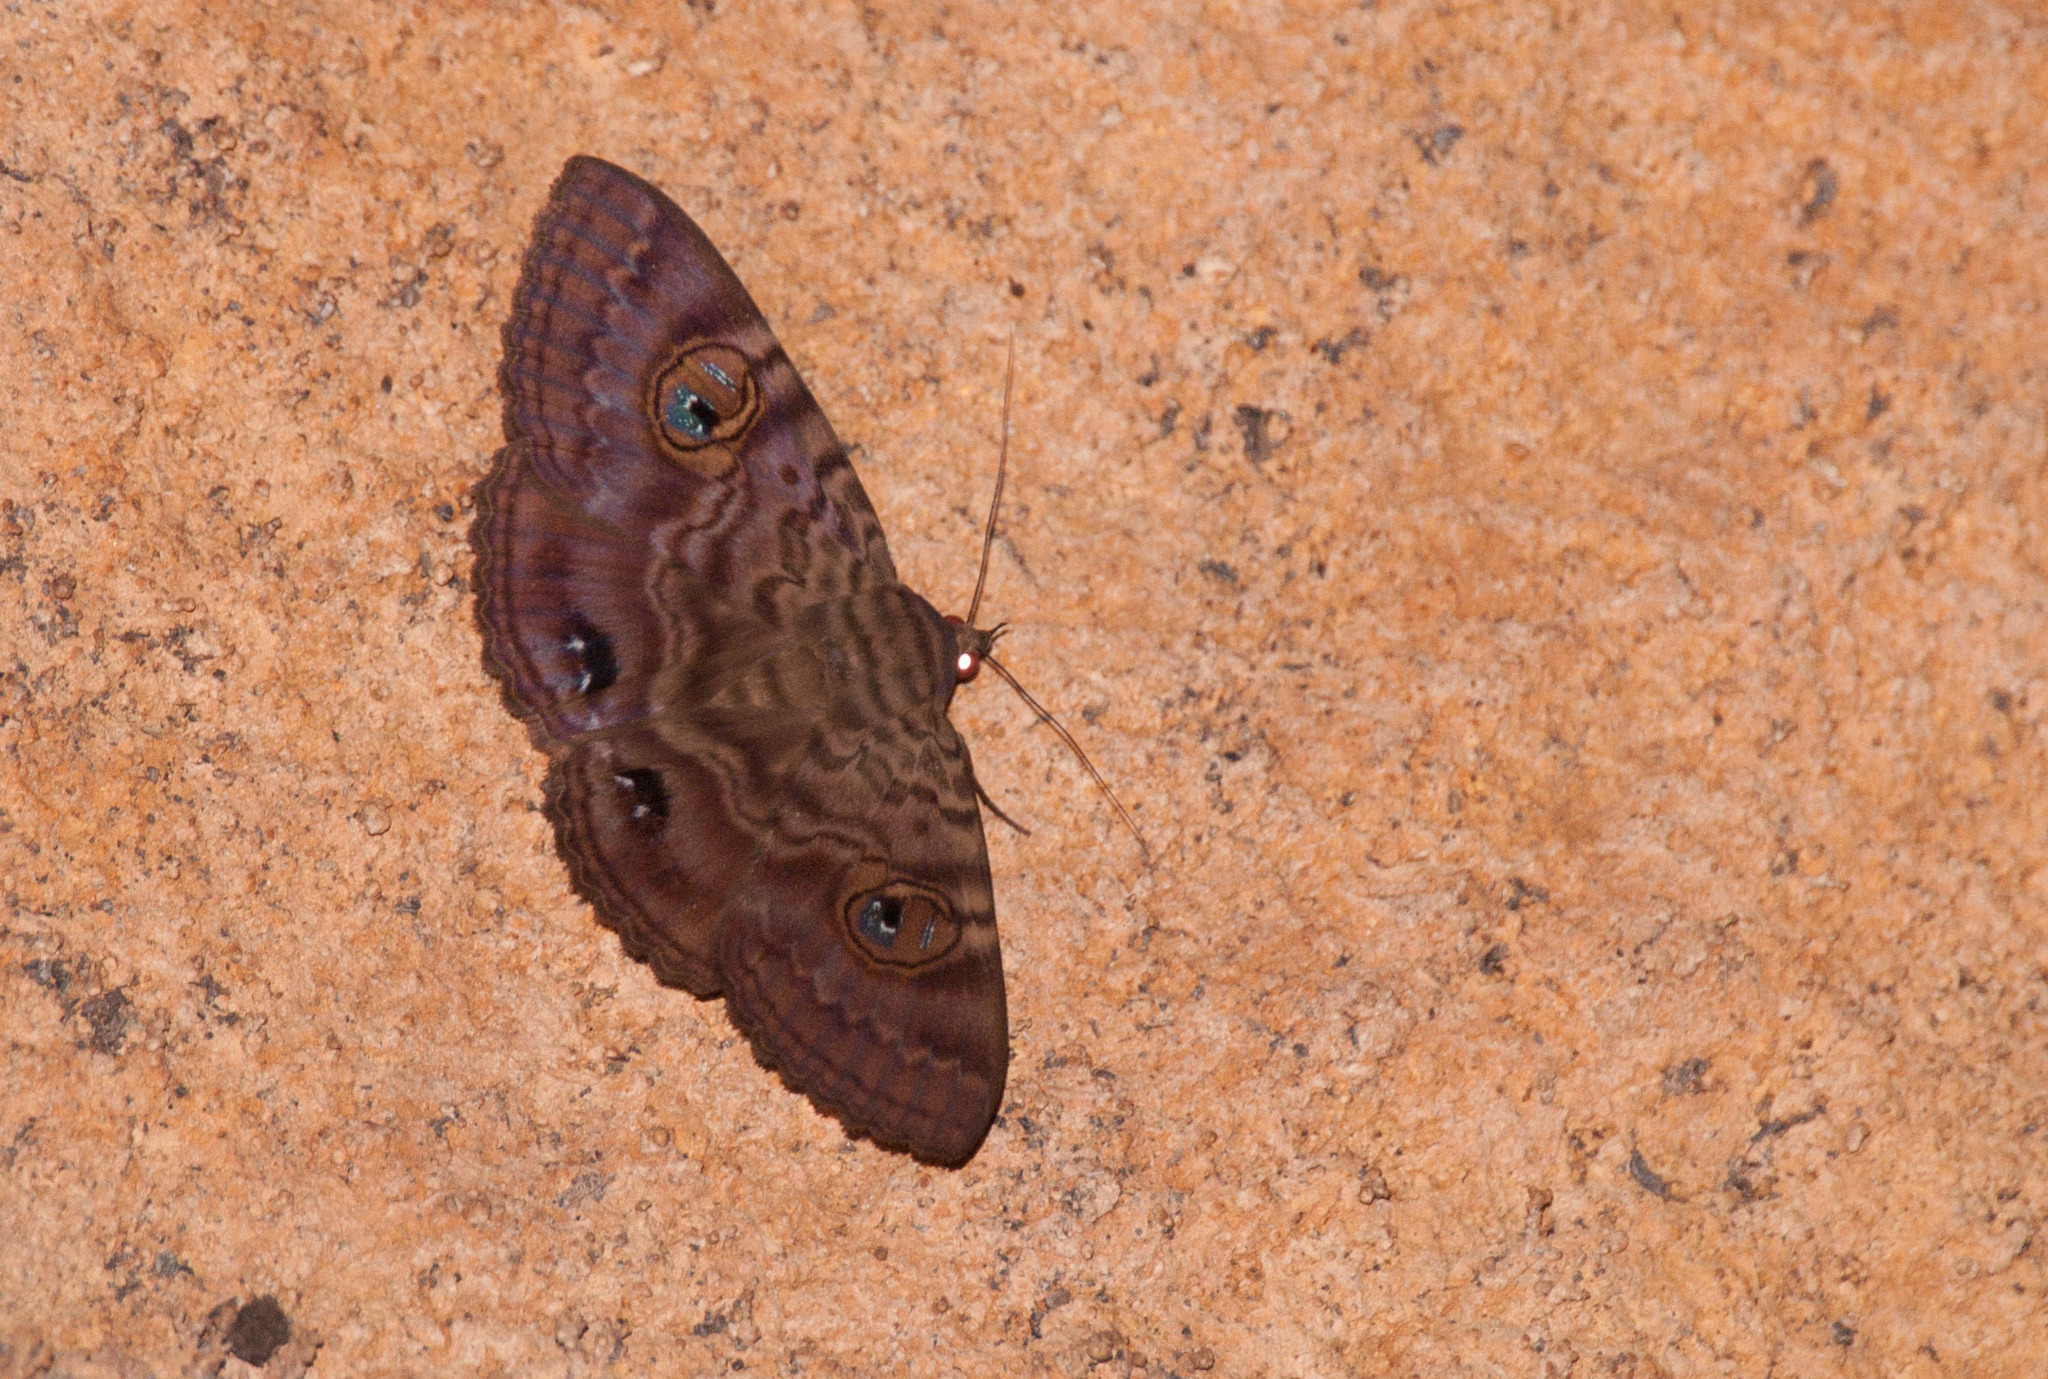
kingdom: Animalia
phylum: Arthropoda
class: Insecta
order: Lepidoptera
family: Erebidae
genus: Speiredonia
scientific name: Speiredonia spectans
